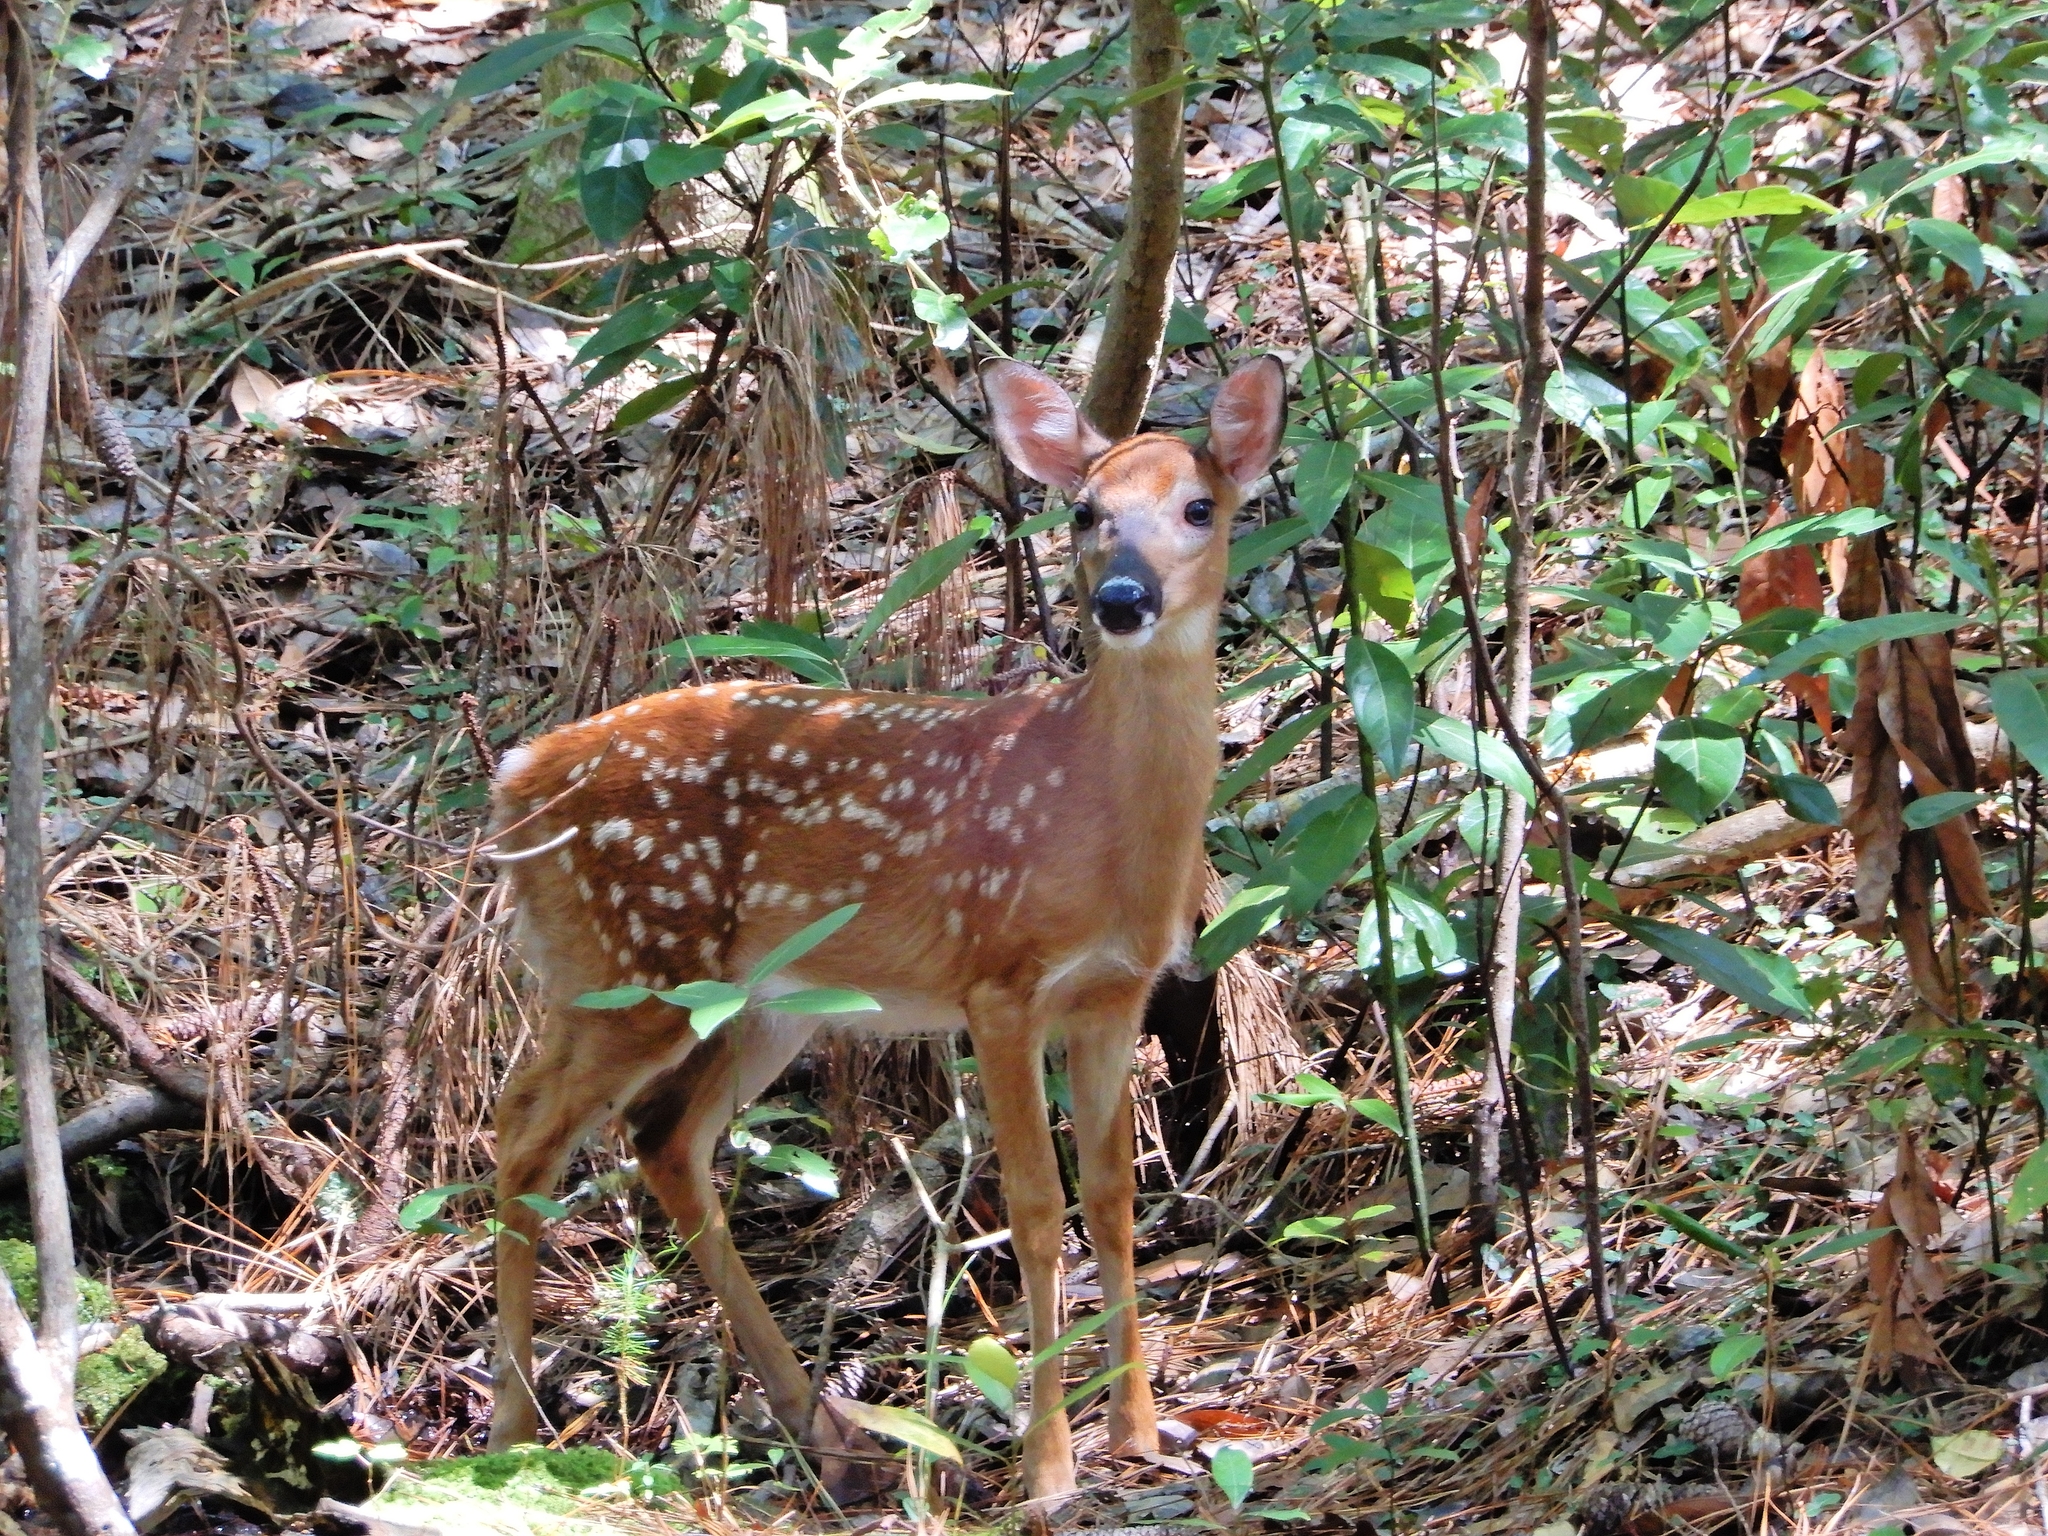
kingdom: Animalia
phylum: Chordata
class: Mammalia
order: Artiodactyla
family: Cervidae
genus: Odocoileus
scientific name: Odocoileus virginianus
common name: White-tailed deer
